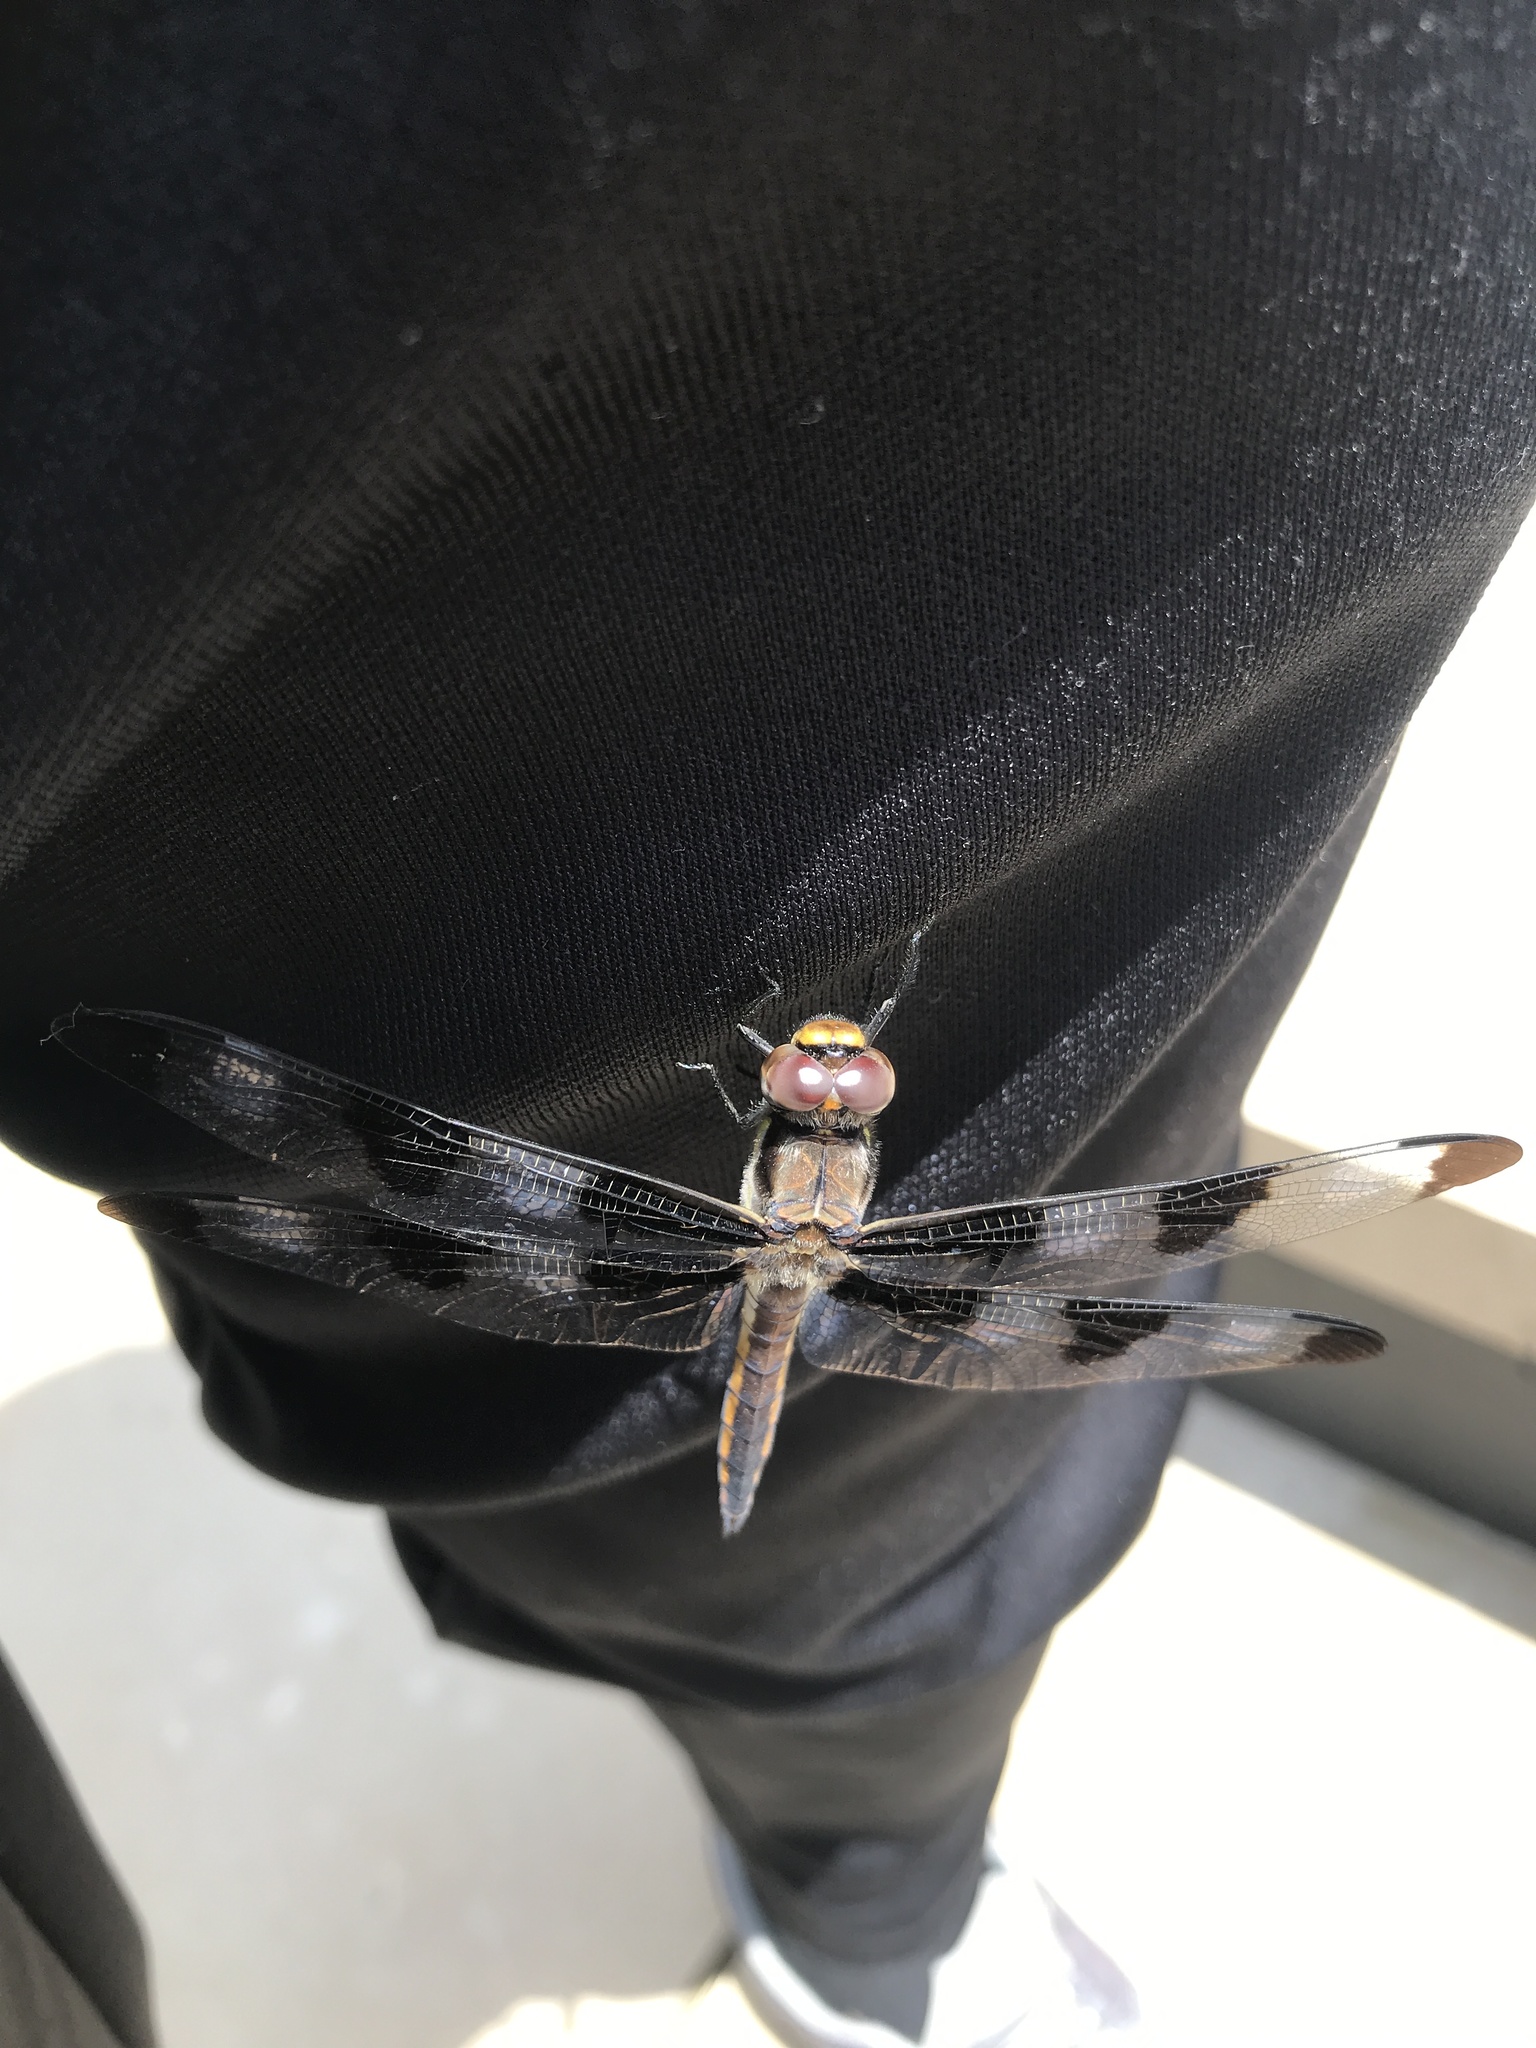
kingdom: Animalia
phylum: Arthropoda
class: Insecta
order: Odonata
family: Libellulidae
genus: Libellula
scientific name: Libellula pulchella
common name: Twelve-spotted skimmer
